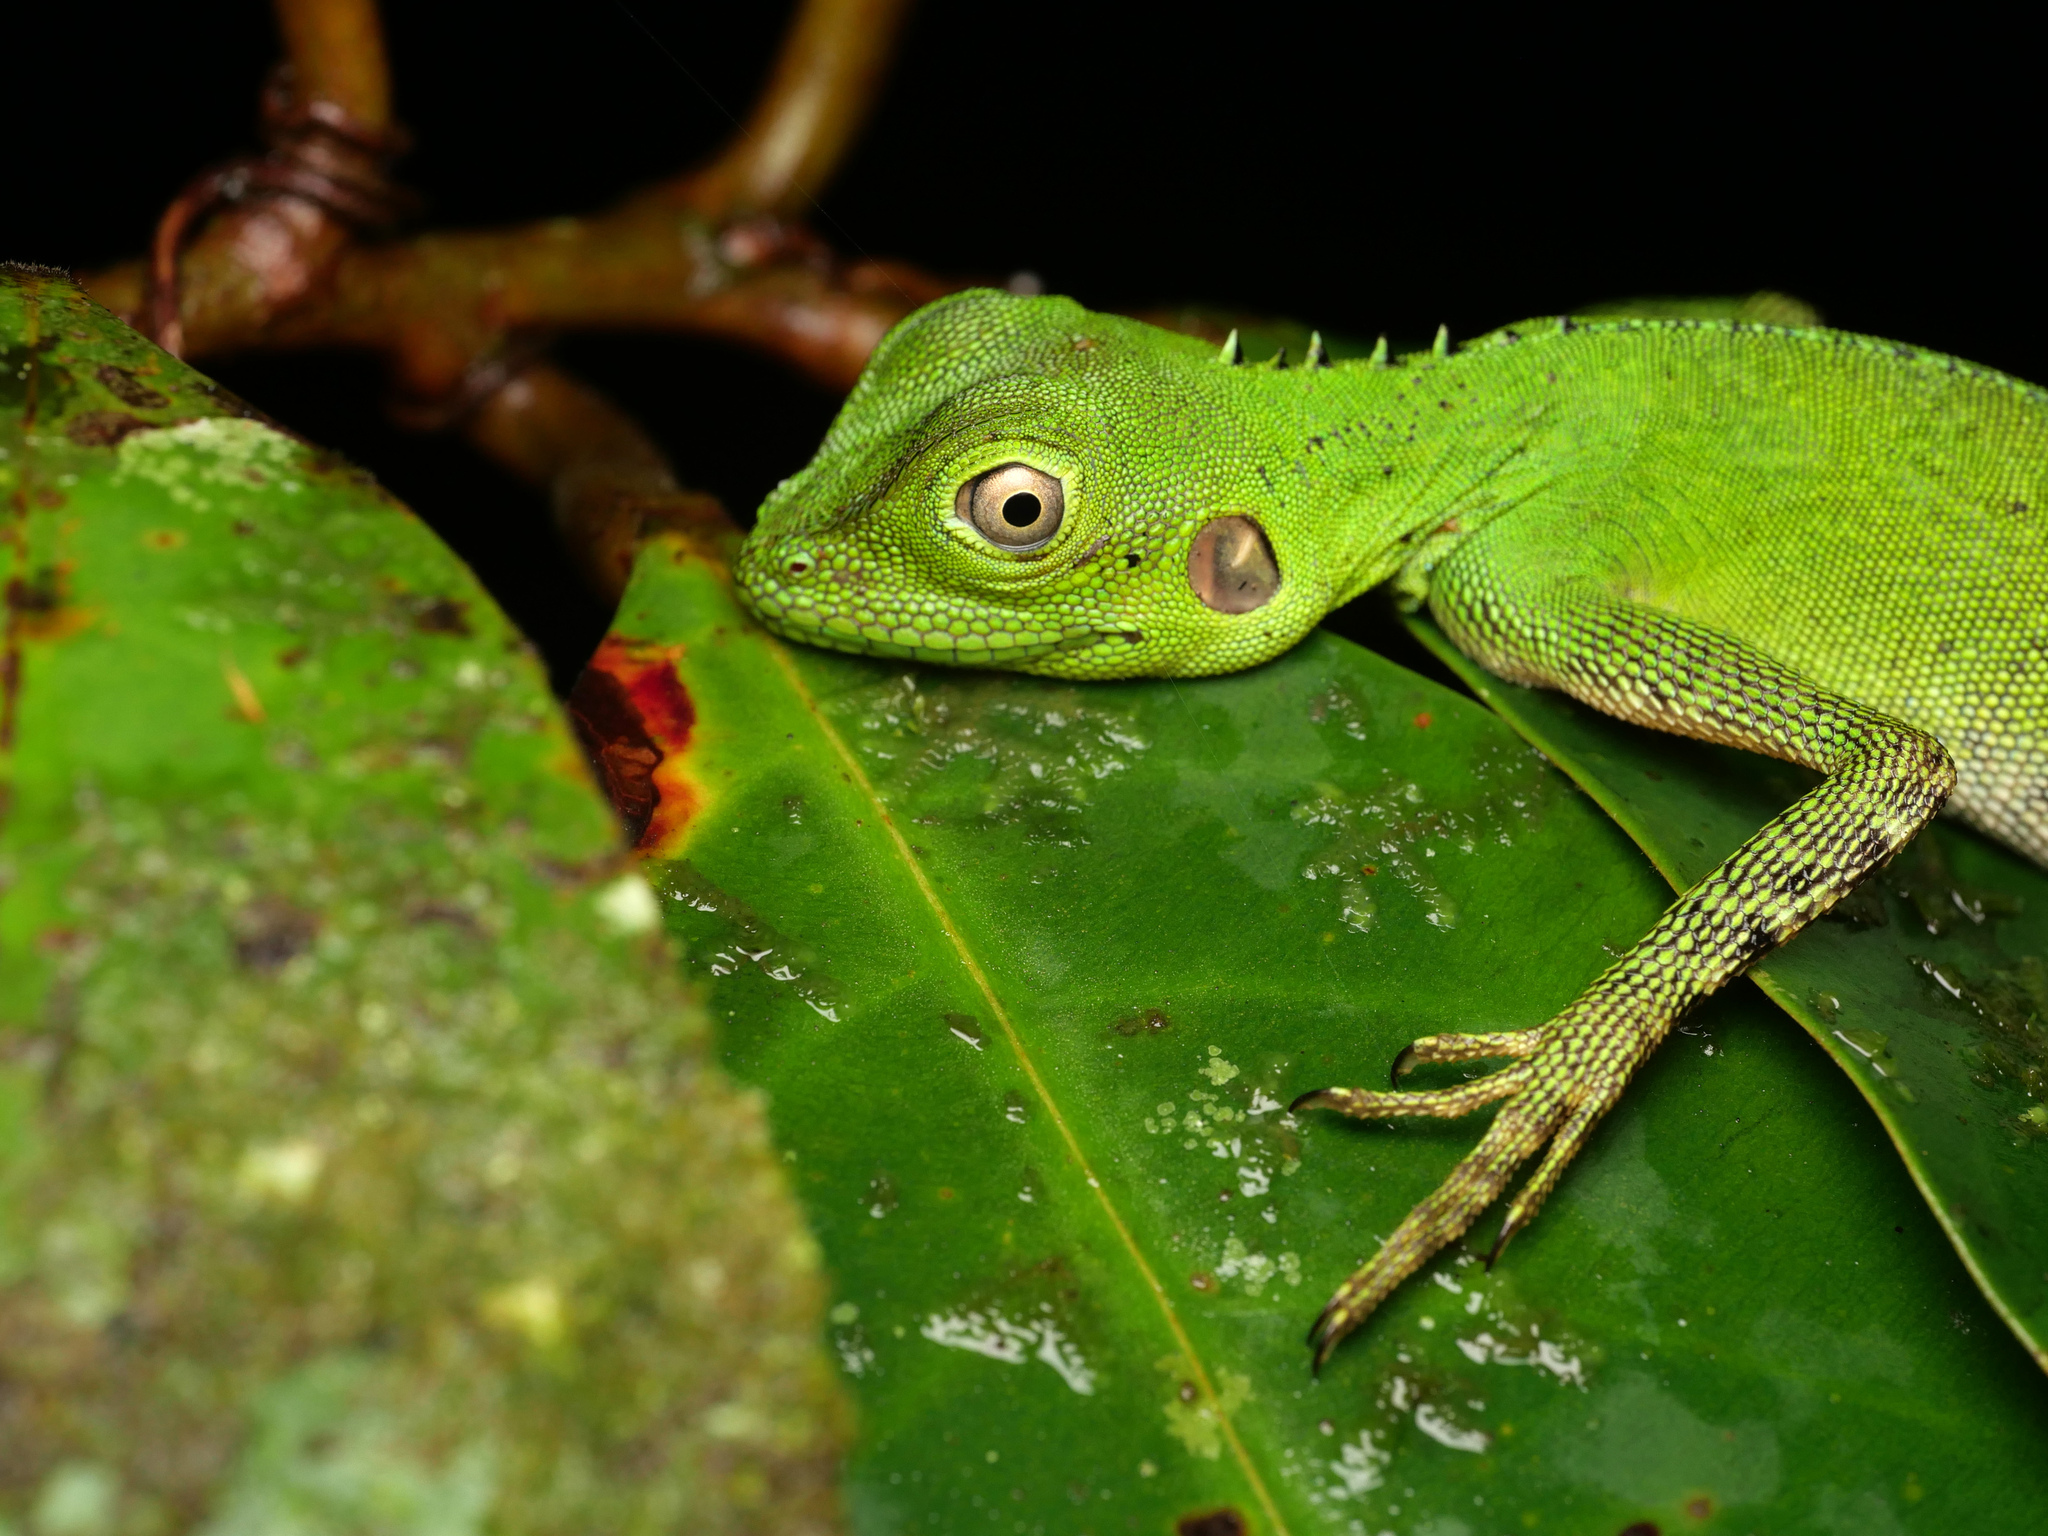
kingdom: Animalia
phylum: Chordata
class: Squamata
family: Agamidae
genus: Hypsilurus
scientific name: Hypsilurus modestus
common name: Modest forest dragon
